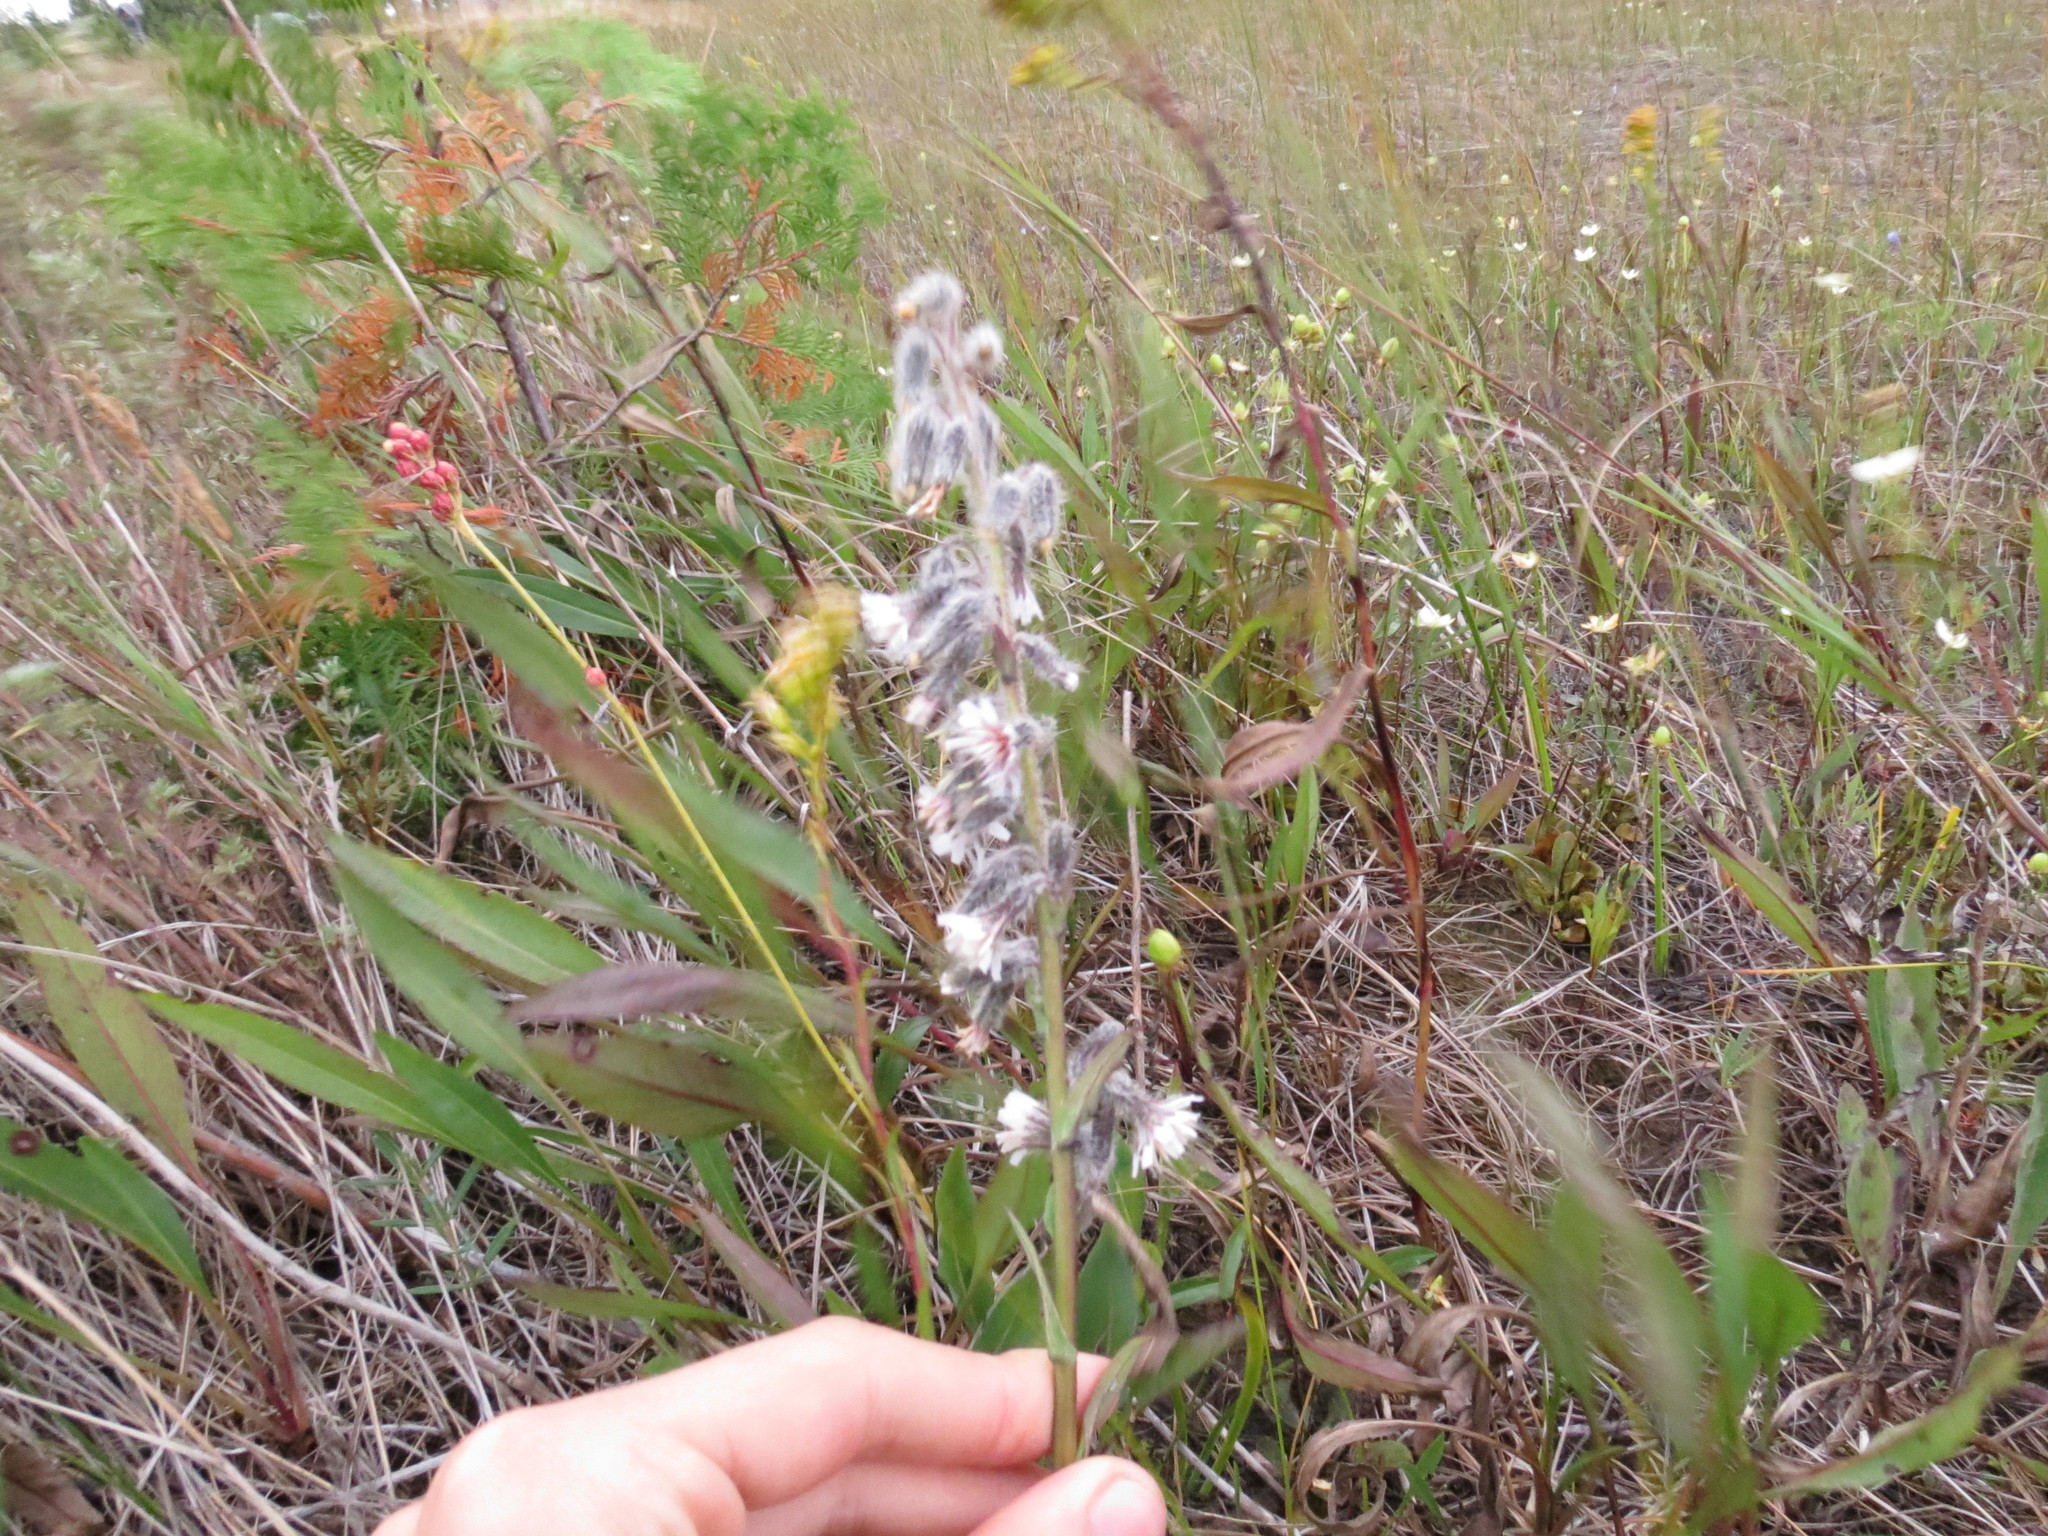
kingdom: Plantae
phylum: Tracheophyta
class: Magnoliopsida
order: Asterales
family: Asteraceae
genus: Nabalus
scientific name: Nabalus racemosus
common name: Glaucous white lettuce
